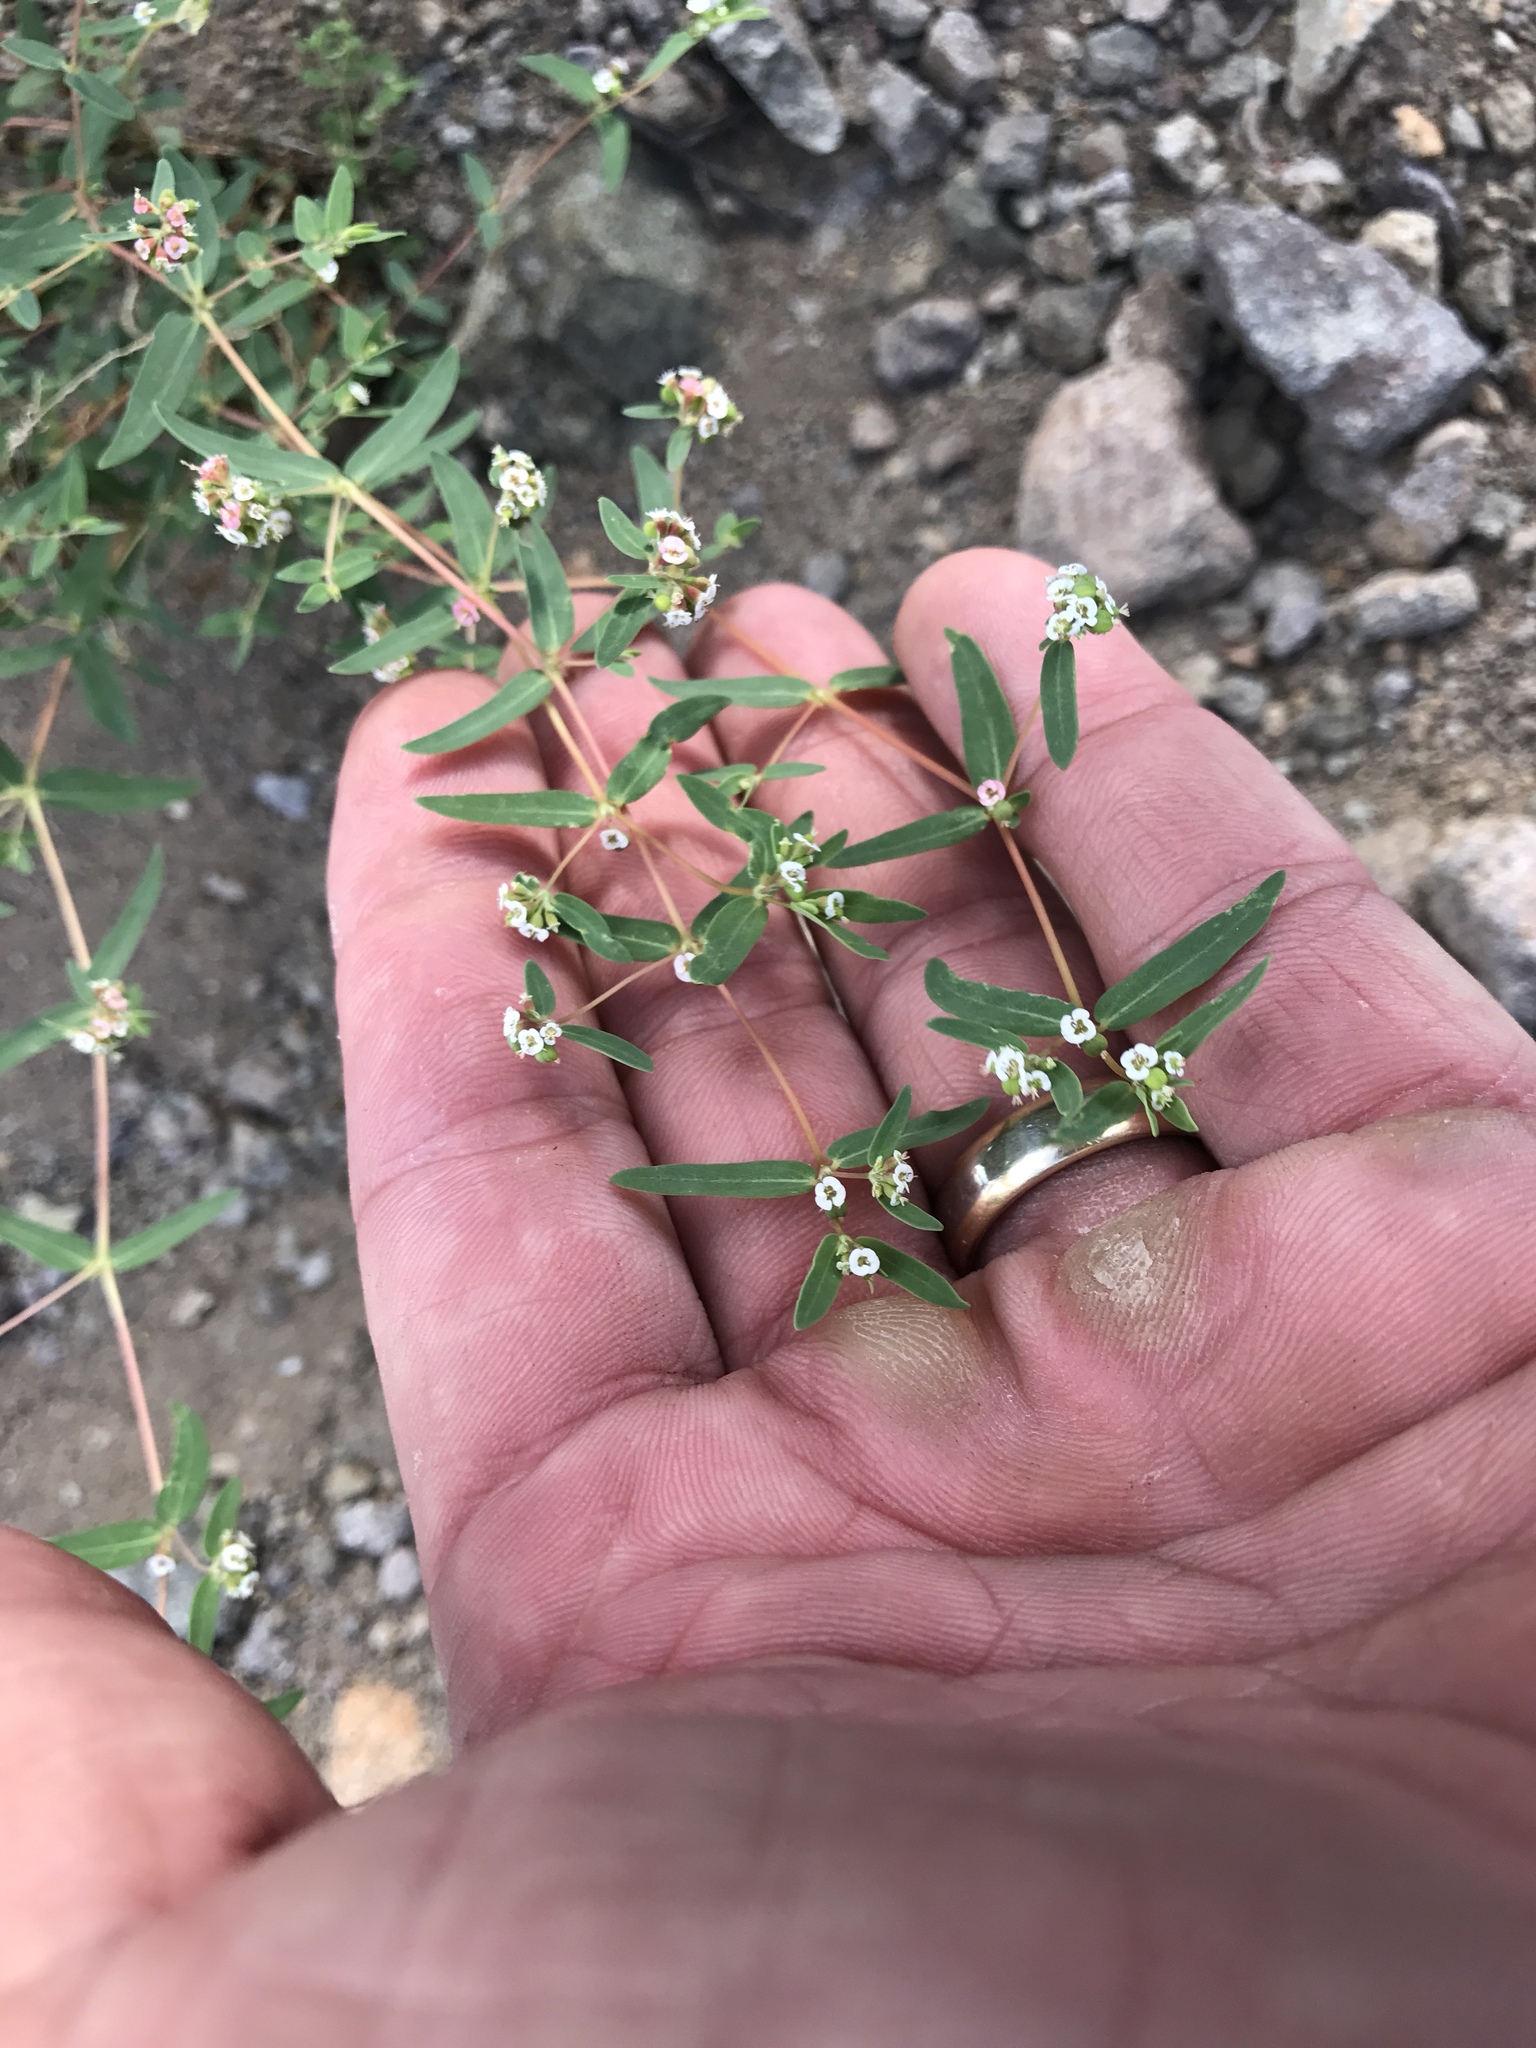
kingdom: Plantae
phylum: Tracheophyta
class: Magnoliopsida
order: Malpighiales
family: Euphorbiaceae
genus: Euphorbia
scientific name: Euphorbia capitellata
